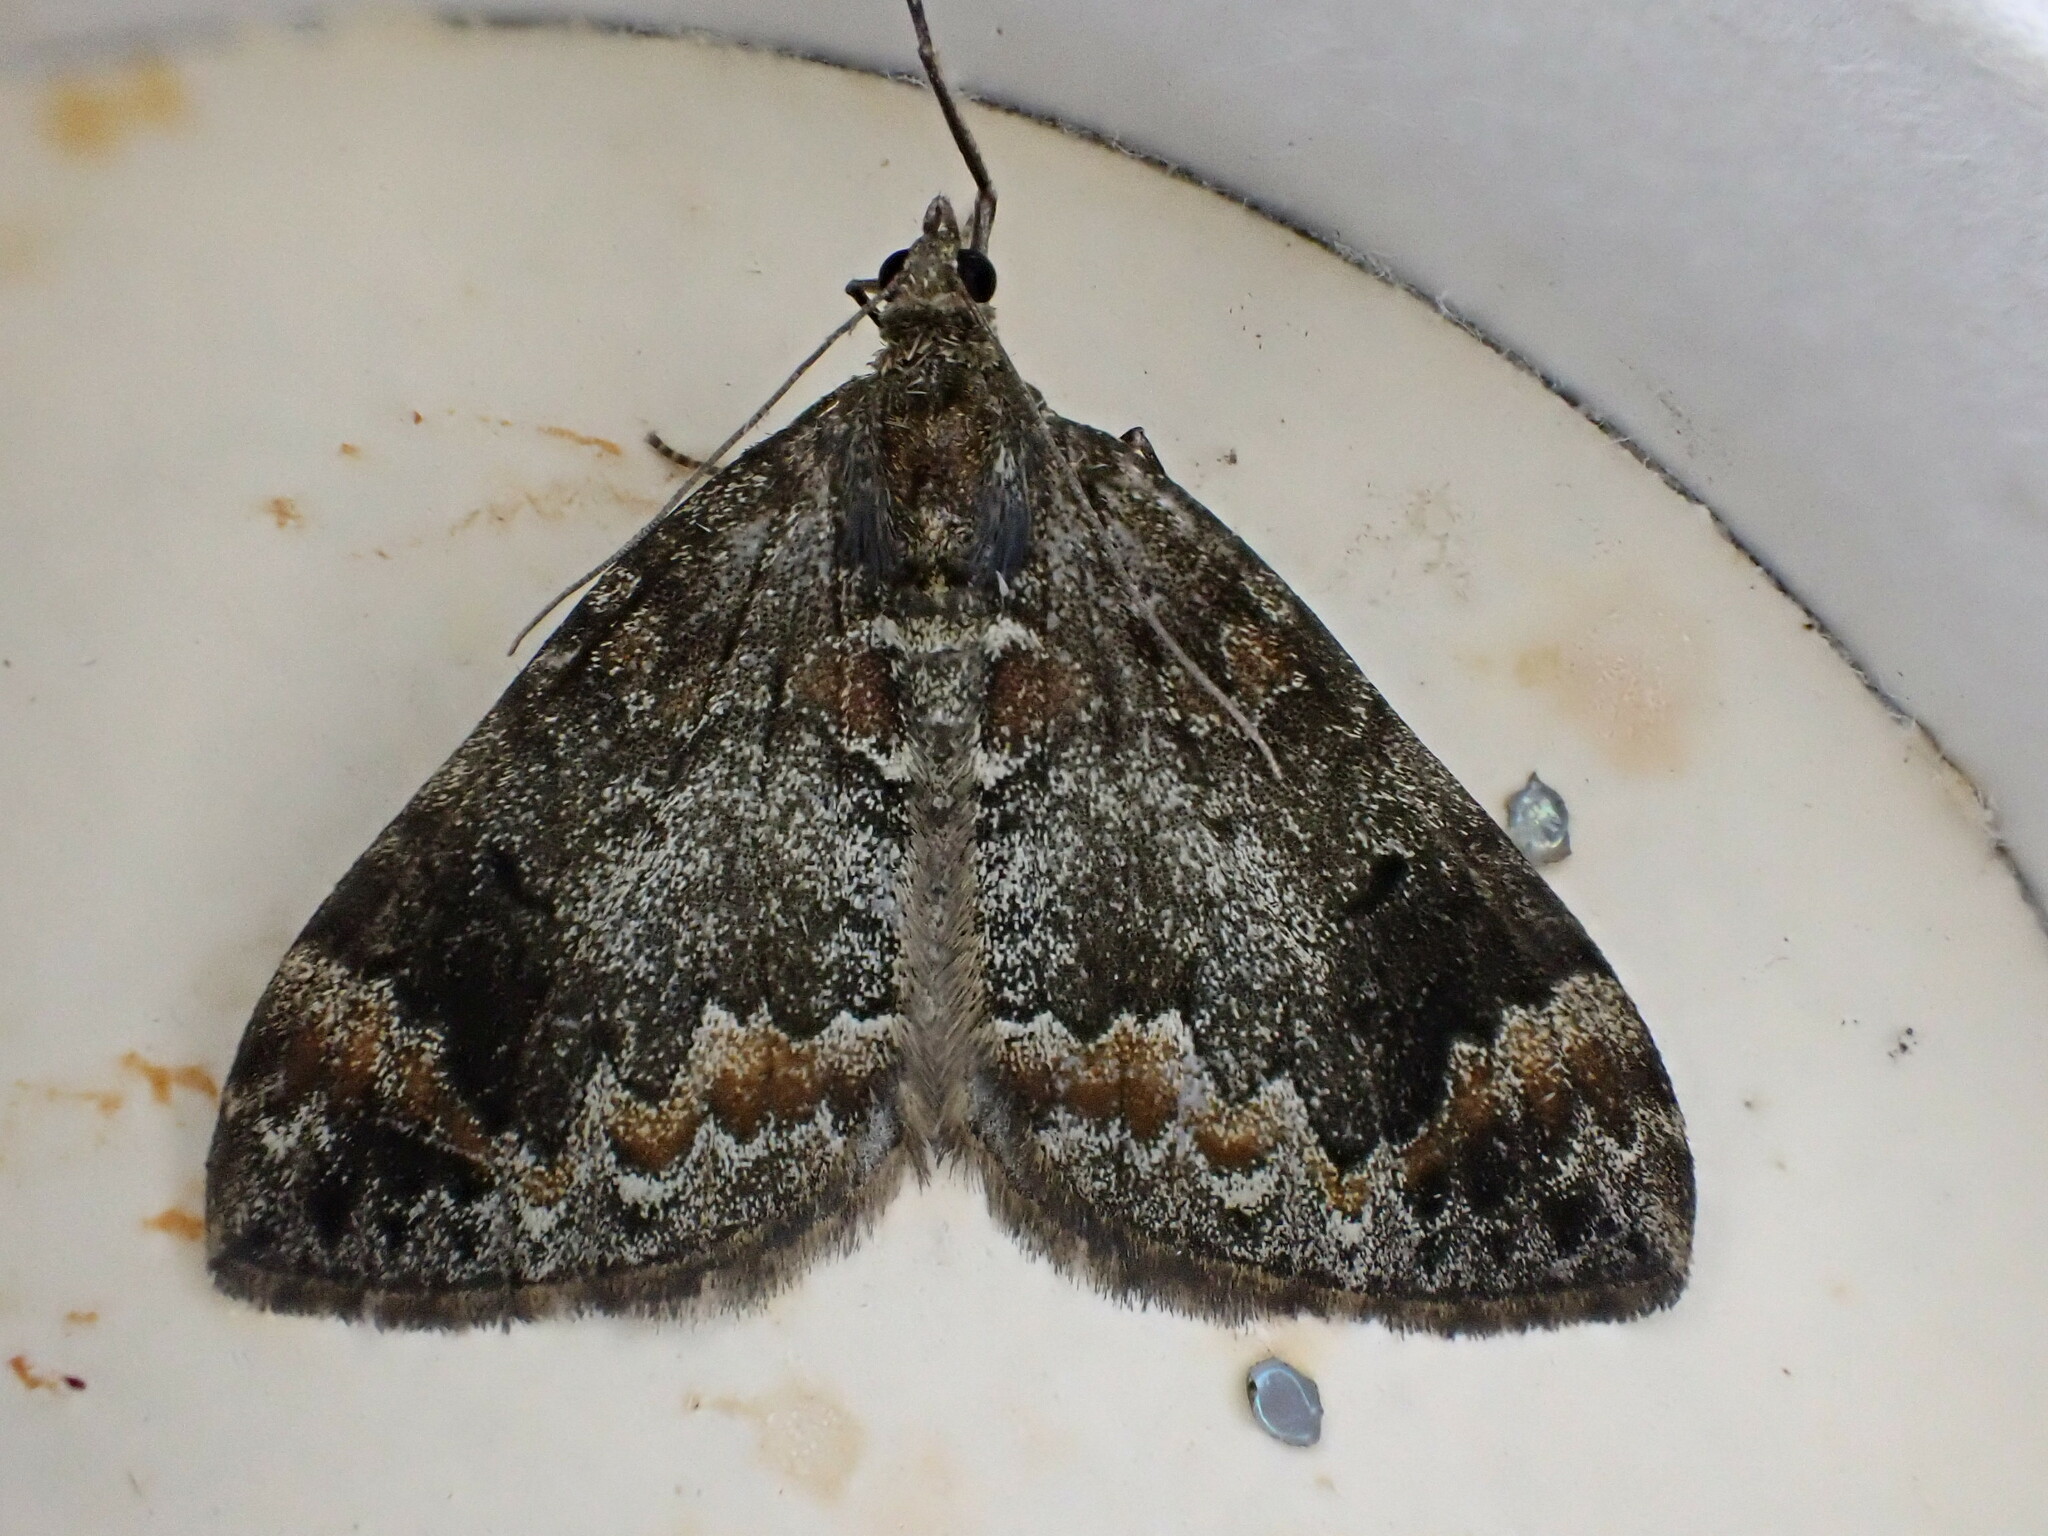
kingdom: Animalia
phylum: Arthropoda
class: Insecta
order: Lepidoptera
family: Geometridae
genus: Dysstroma
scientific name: Dysstroma truncata
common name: Common marbled carpet
